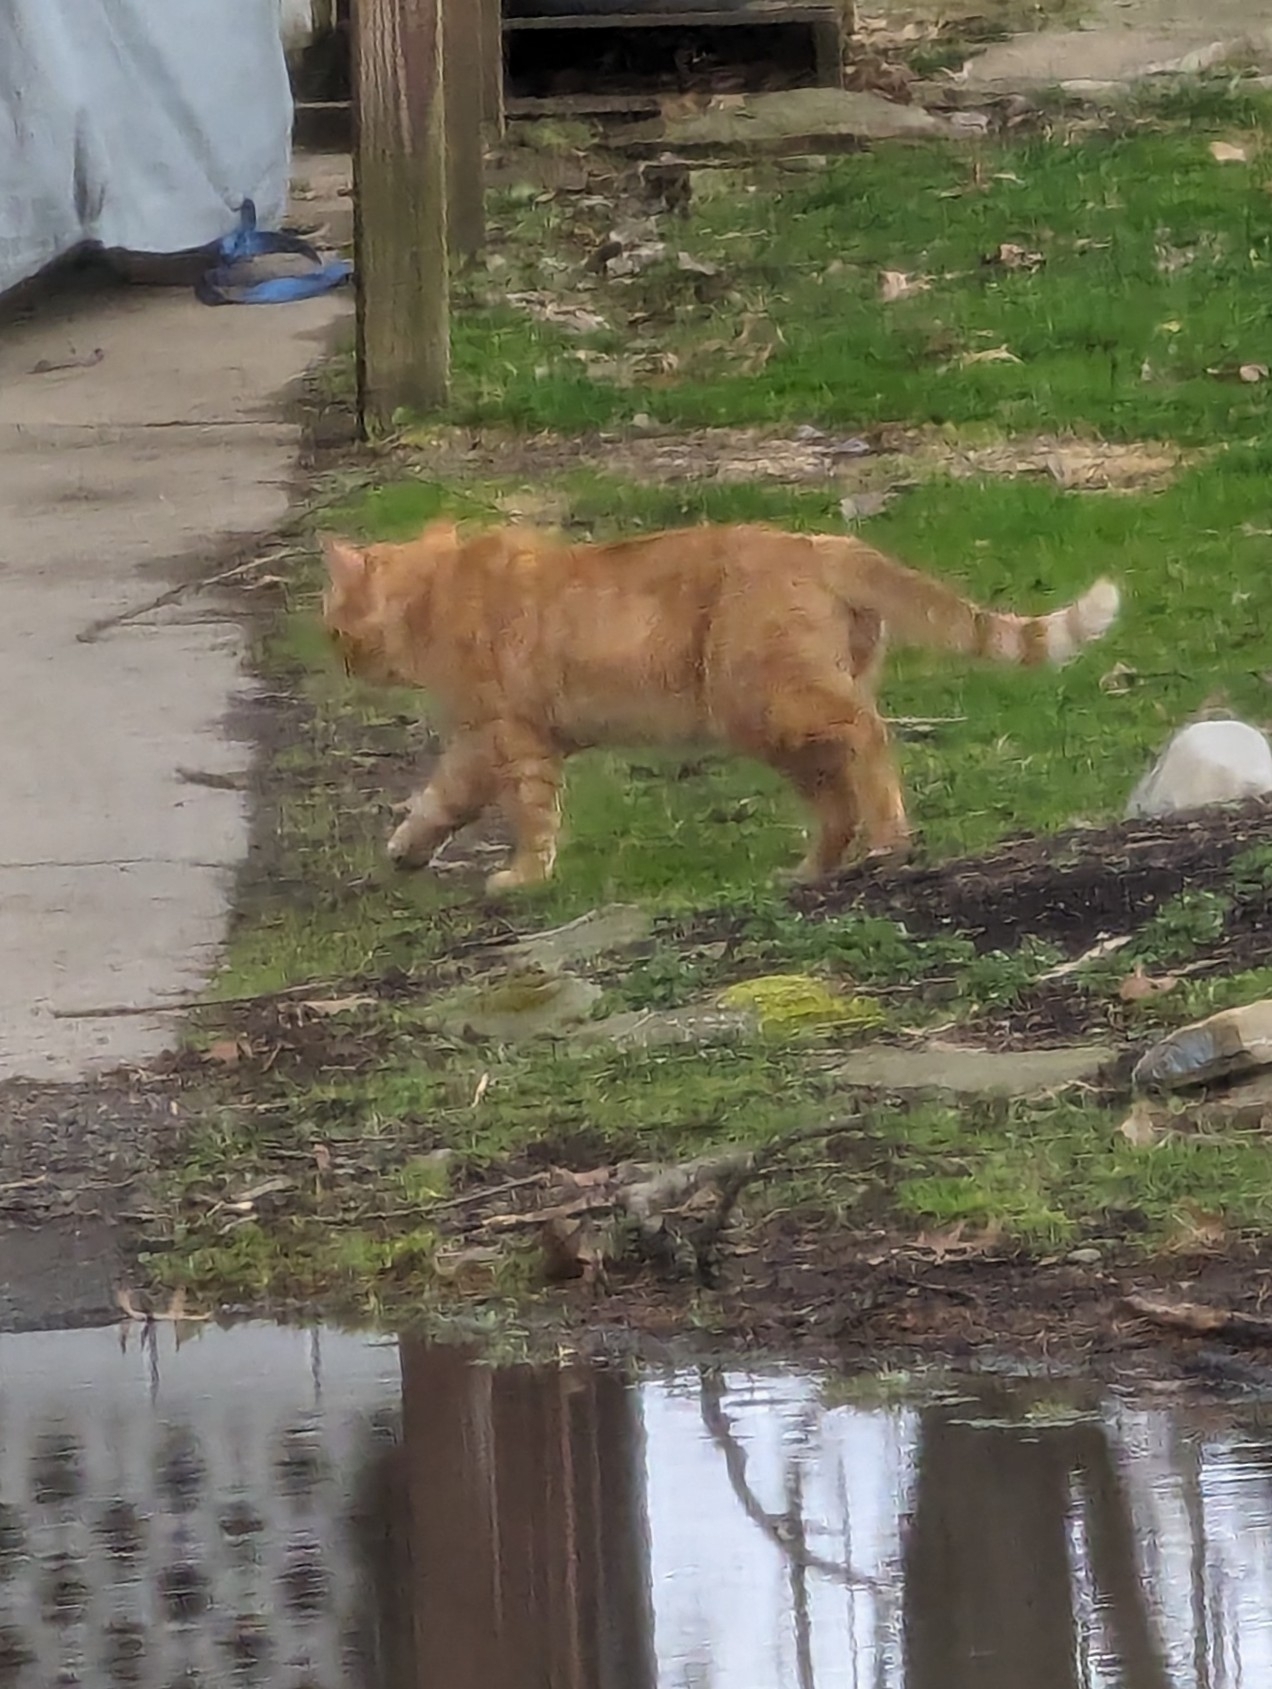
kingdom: Animalia
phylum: Chordata
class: Mammalia
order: Carnivora
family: Felidae
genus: Felis
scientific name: Felis catus
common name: Domestic cat
